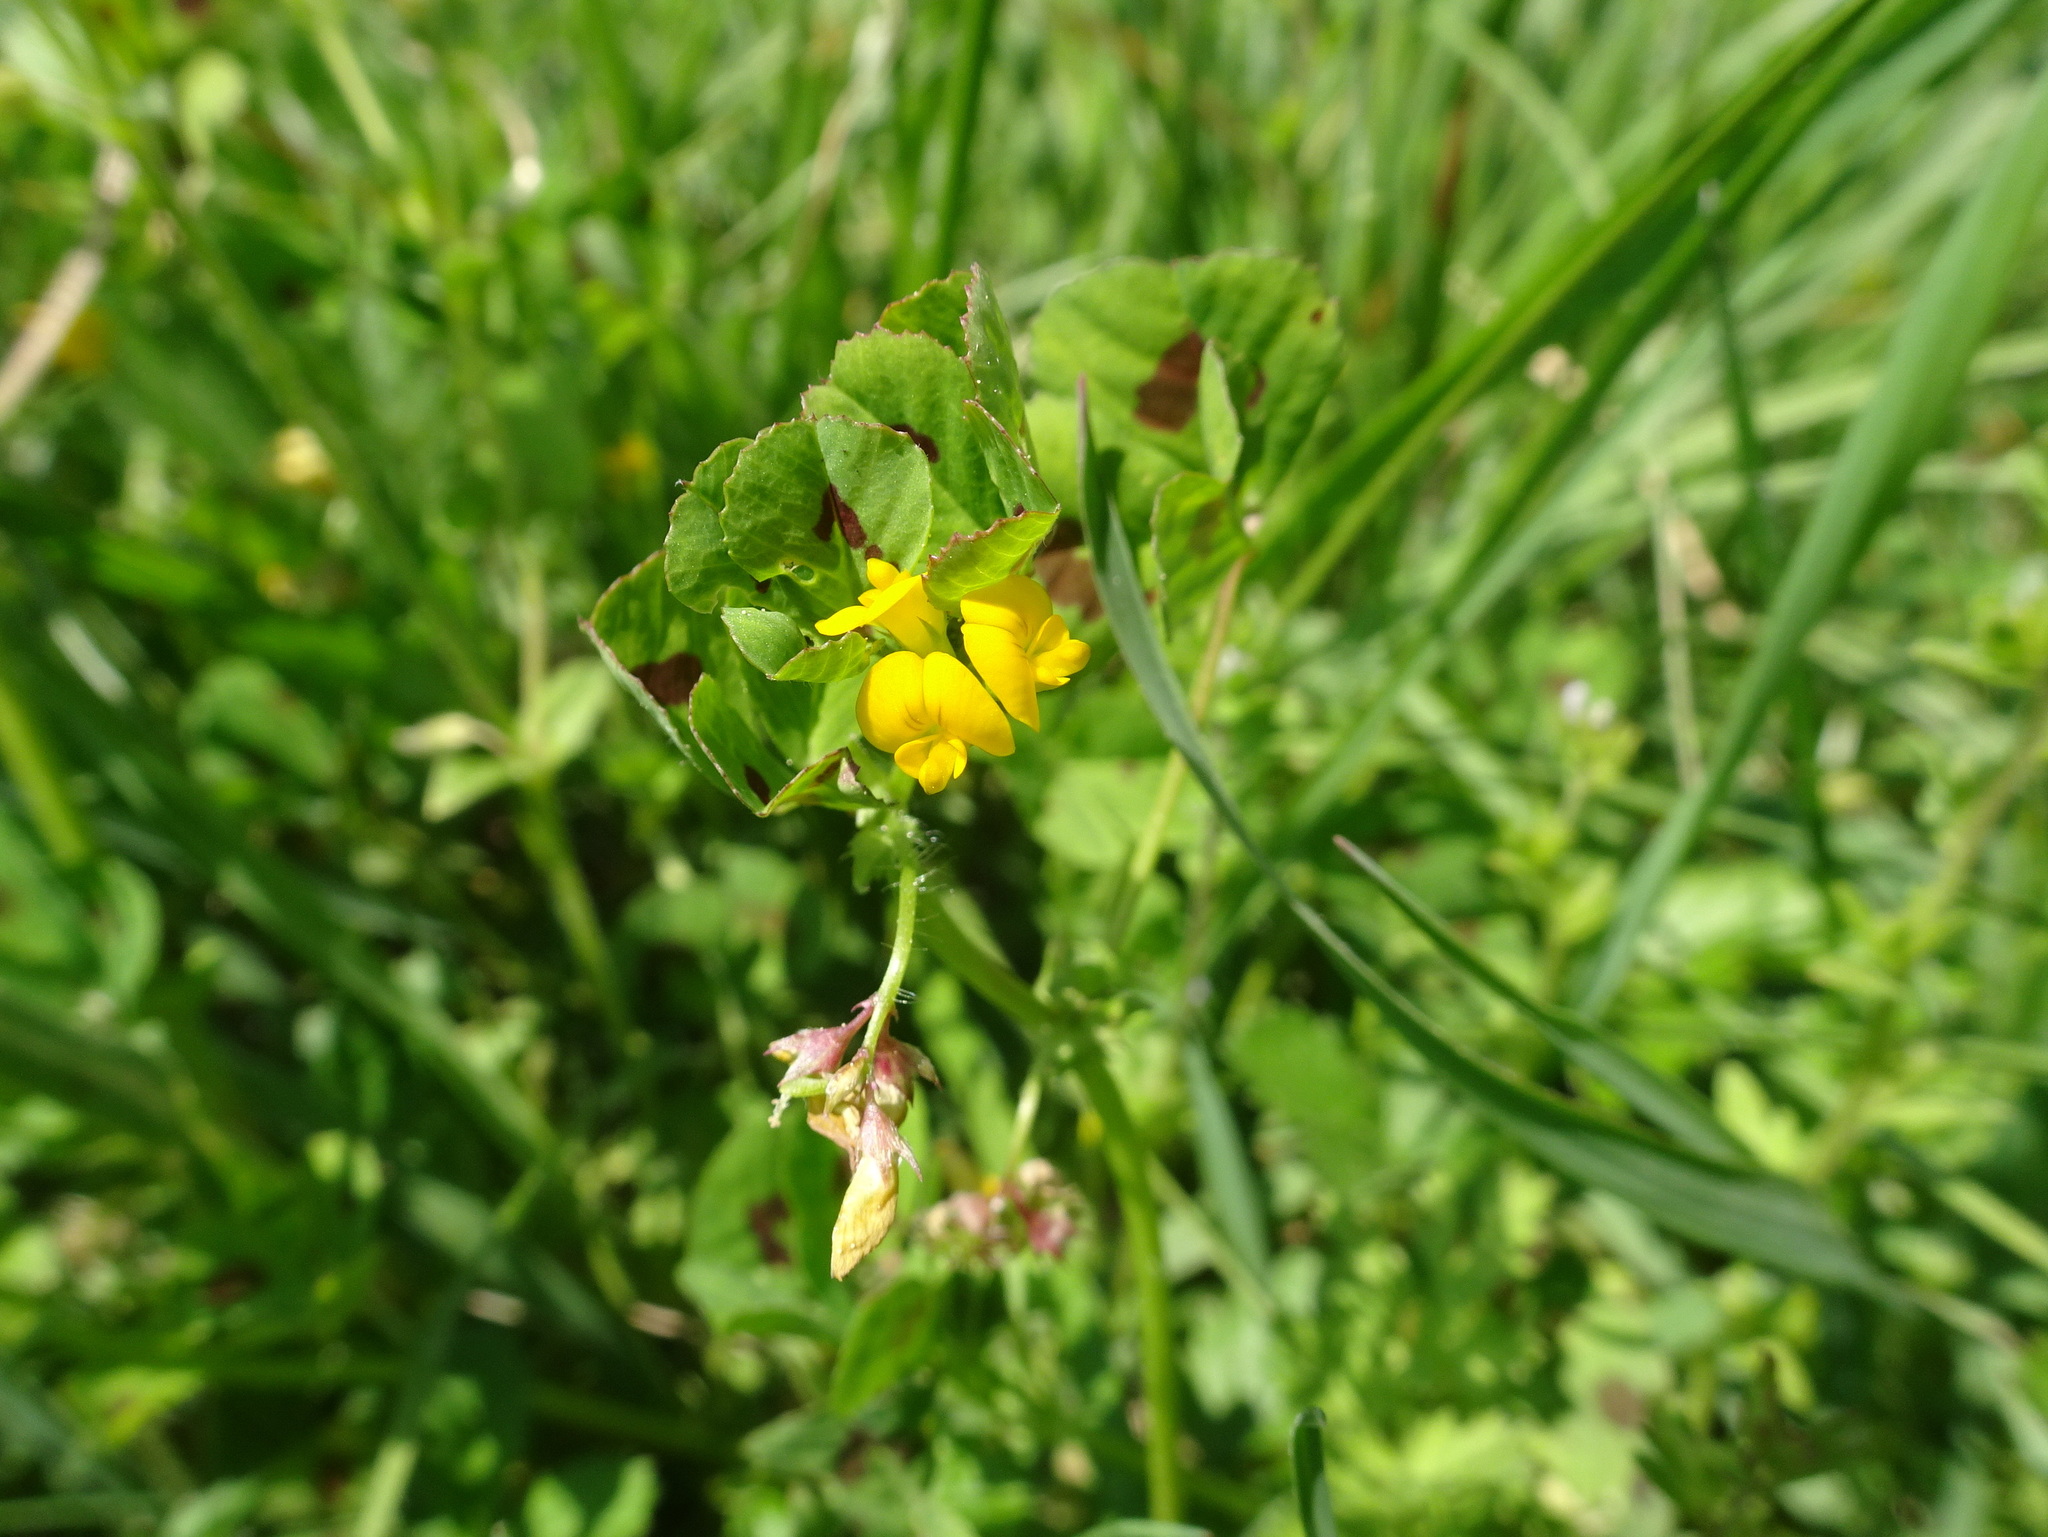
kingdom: Plantae
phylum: Tracheophyta
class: Magnoliopsida
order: Fabales
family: Fabaceae
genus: Medicago
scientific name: Medicago arabica
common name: Spotted medick
